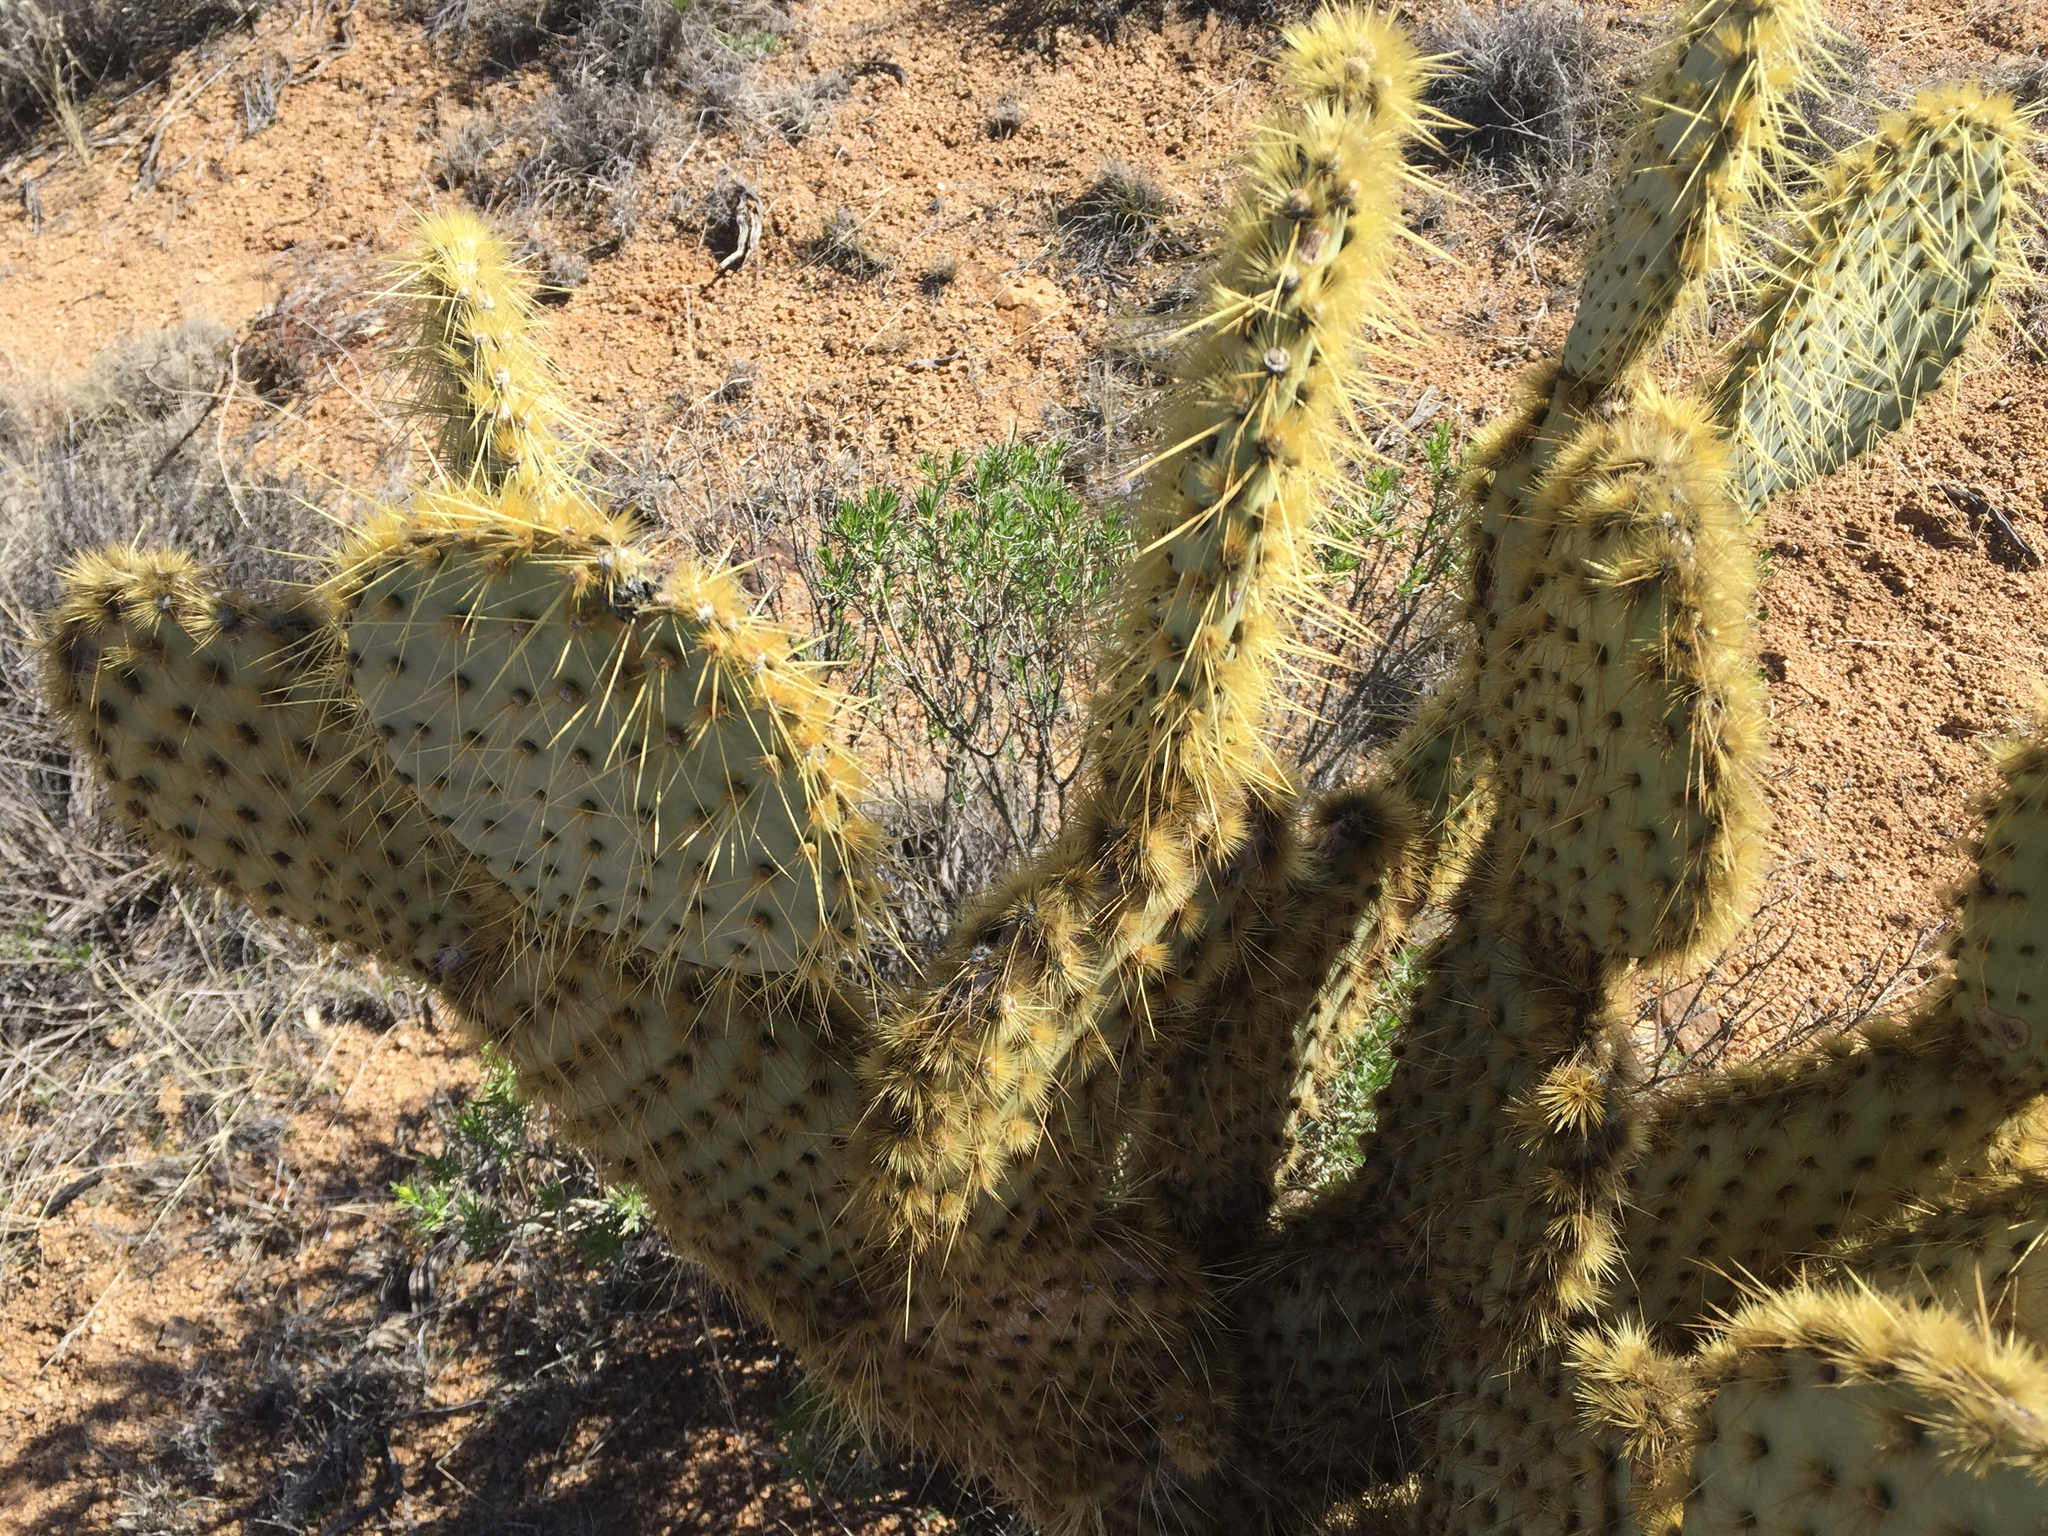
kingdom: Plantae
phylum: Tracheophyta
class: Magnoliopsida
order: Caryophyllales
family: Cactaceae
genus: Opuntia
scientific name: Opuntia chlorotica
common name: Dollar-joint prickly-pear
